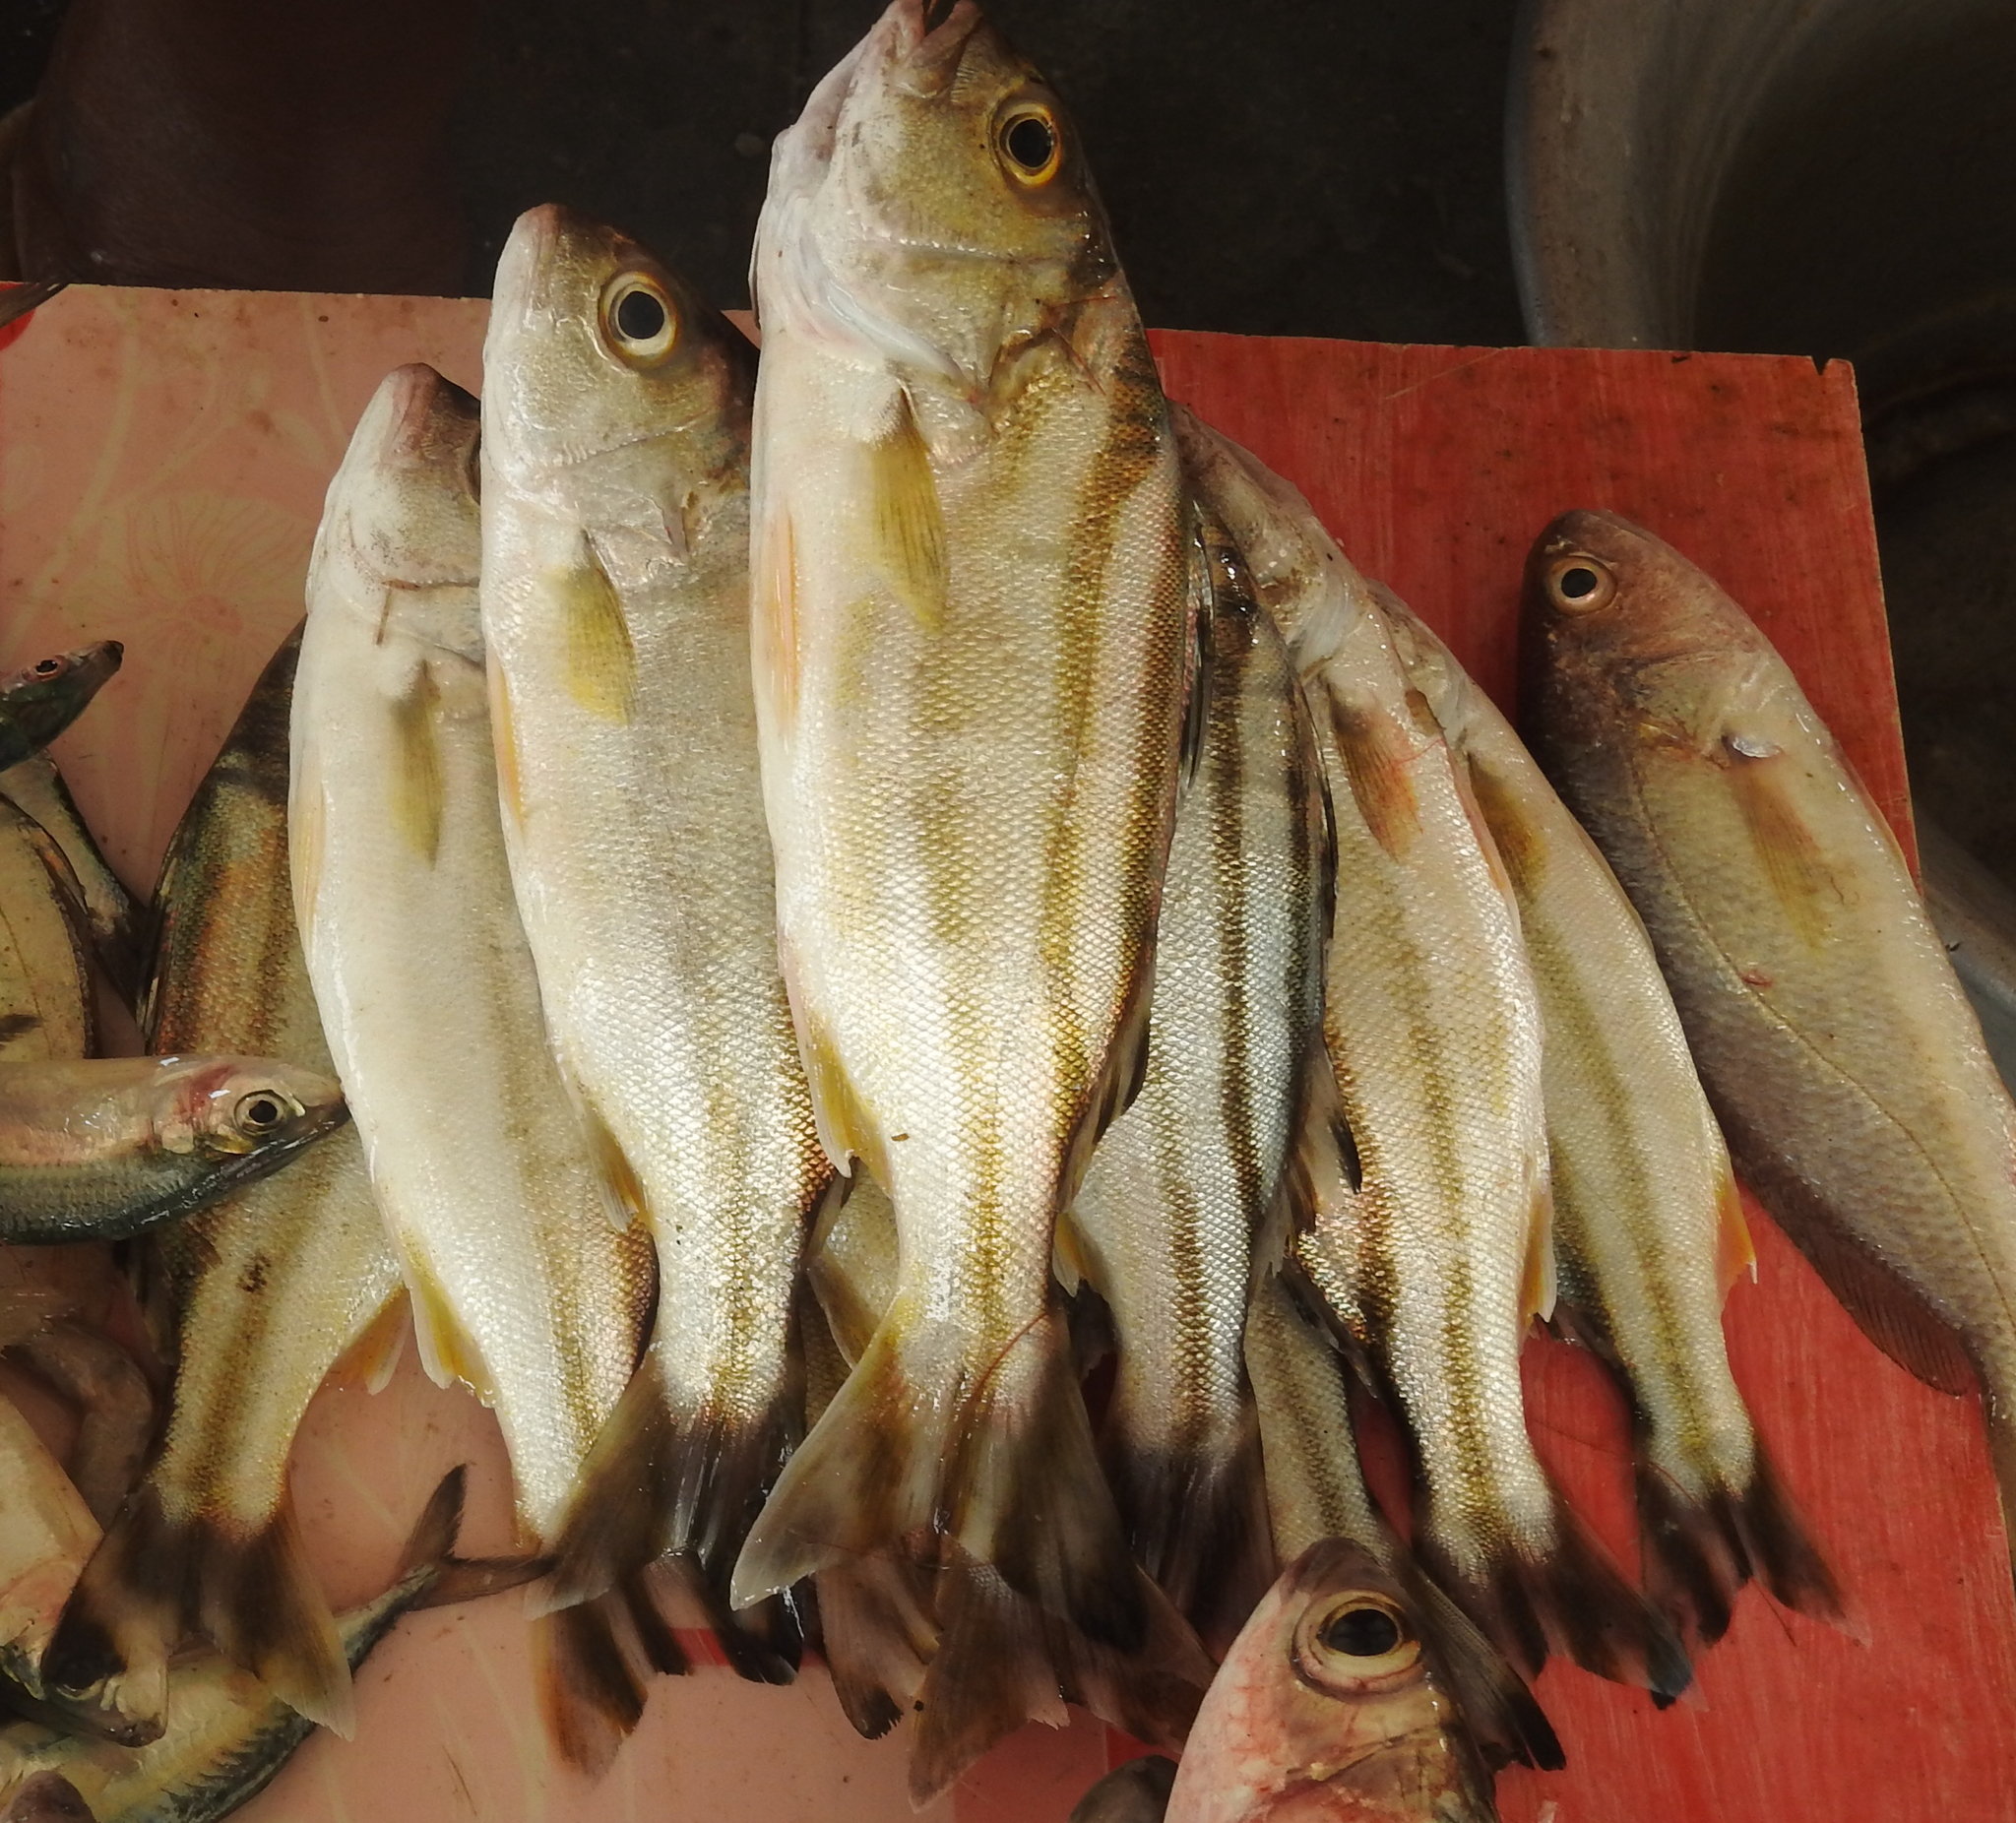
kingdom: Animalia
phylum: Chordata
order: Perciformes
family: Terapontidae
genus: Terapon
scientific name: Terapon jarbua
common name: Jarbua terapon
